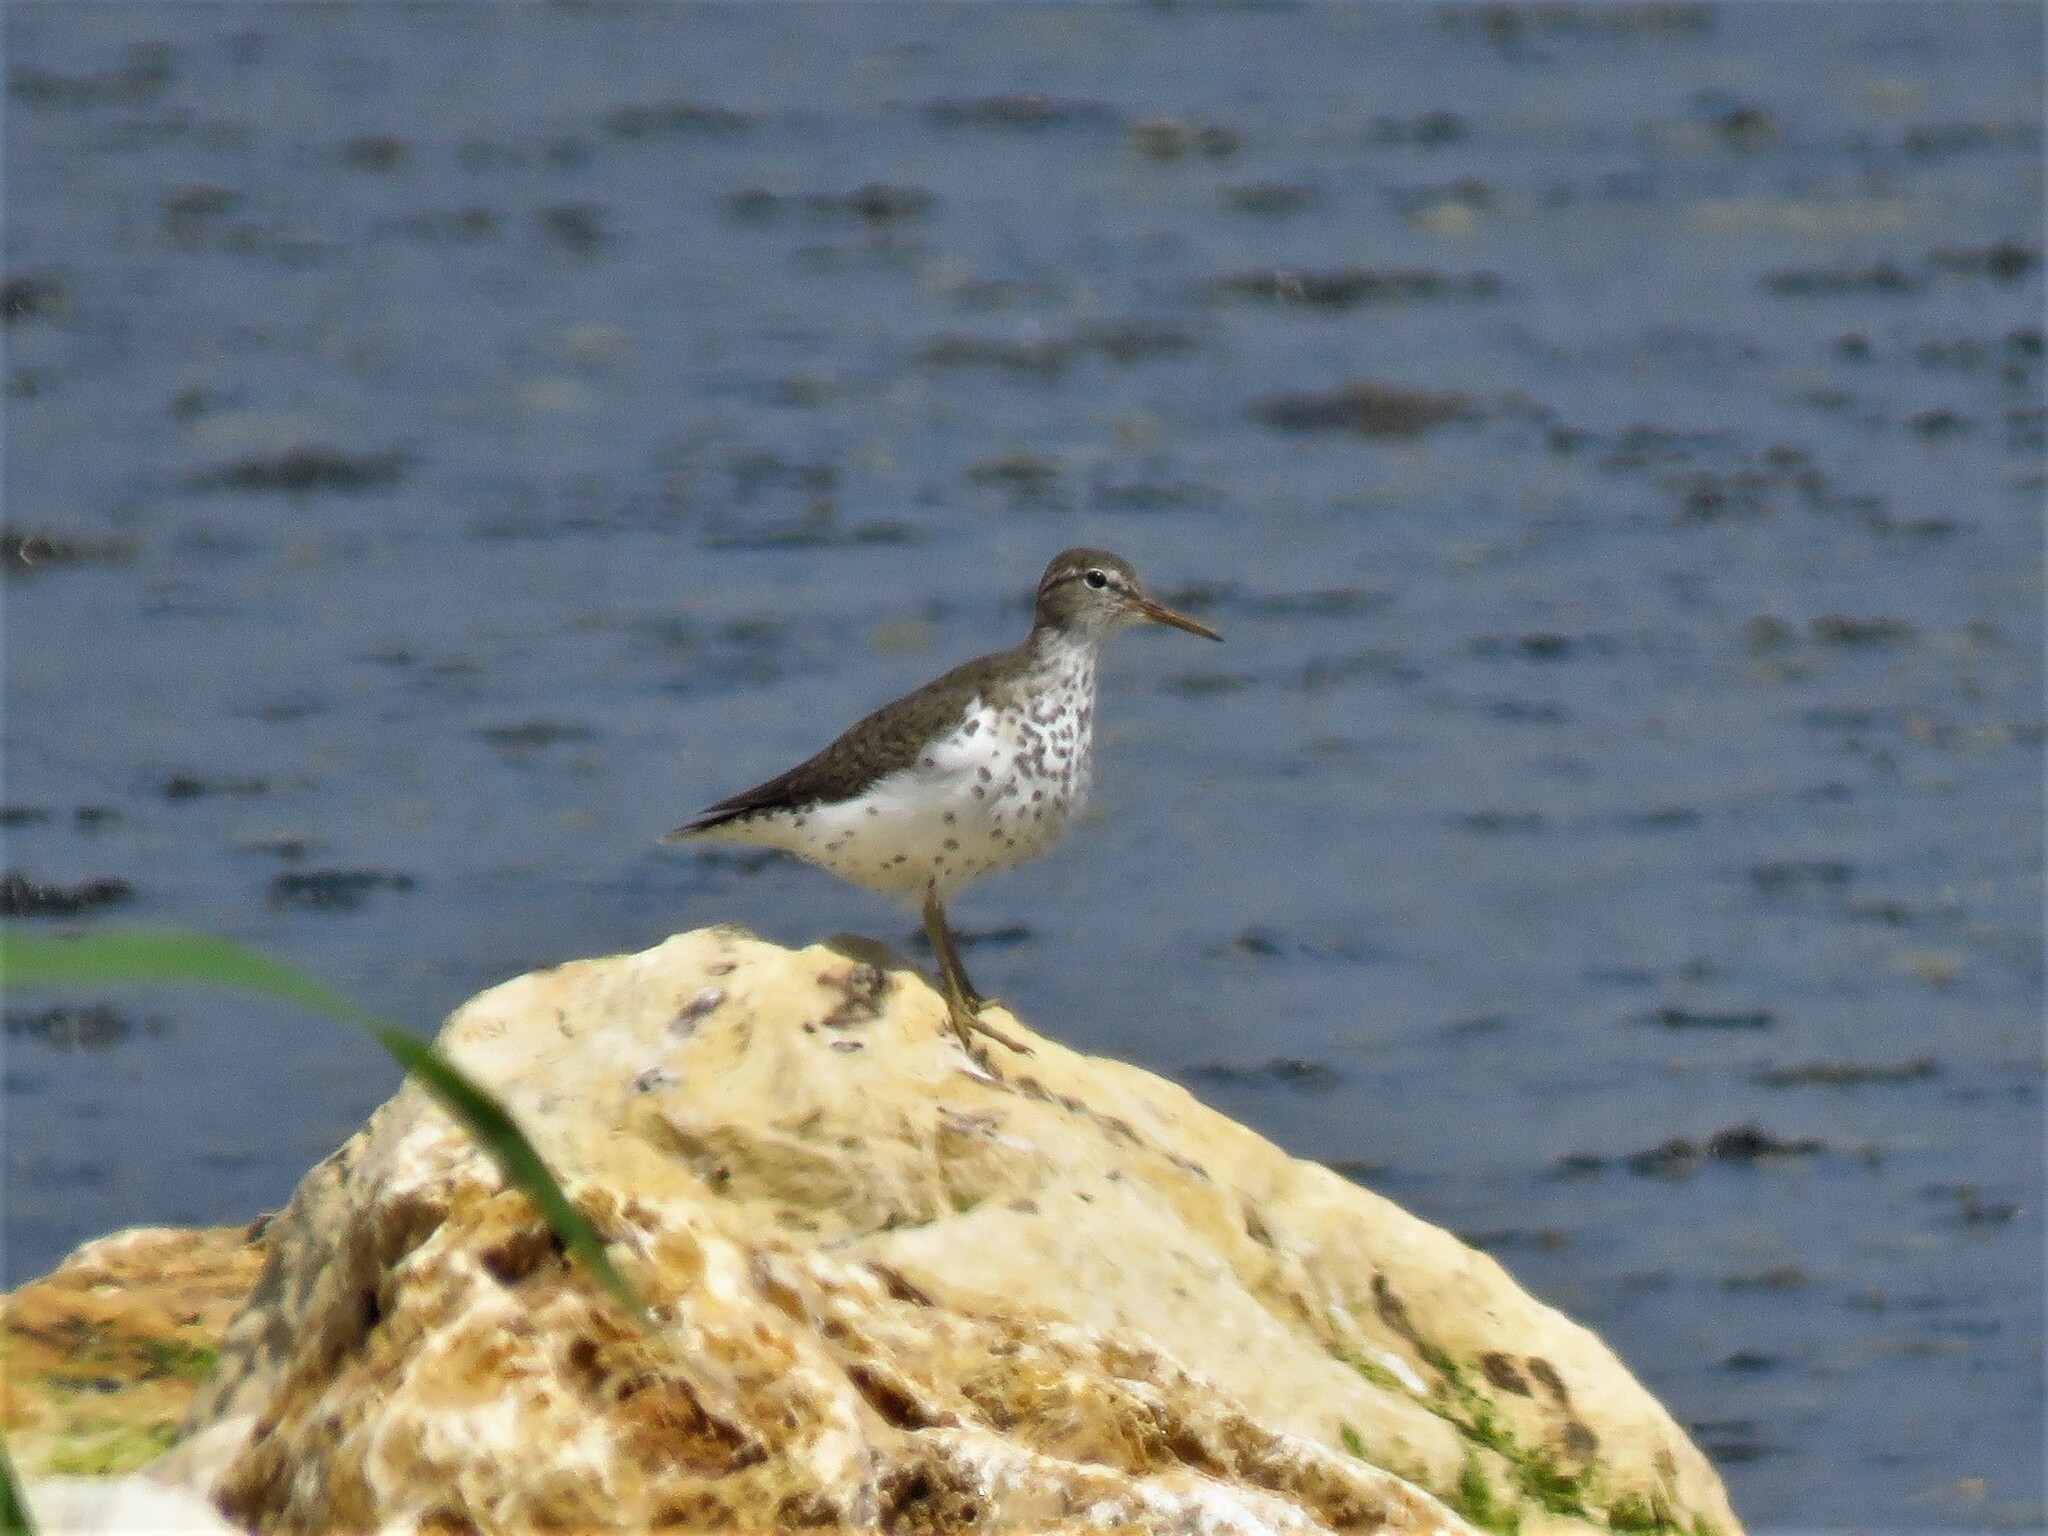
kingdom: Animalia
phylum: Chordata
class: Aves
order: Charadriiformes
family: Scolopacidae
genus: Actitis
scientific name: Actitis macularius
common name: Spotted sandpiper
